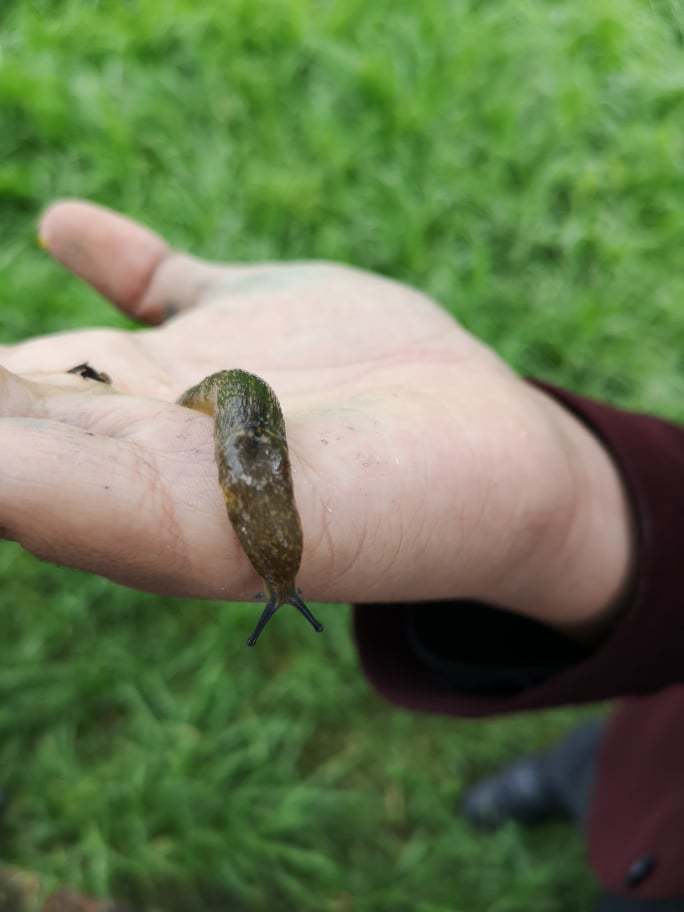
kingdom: Animalia
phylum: Mollusca
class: Gastropoda
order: Stylommatophora
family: Limacidae
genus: Limacus
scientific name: Limacus flavus
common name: Yellow gardenslug
